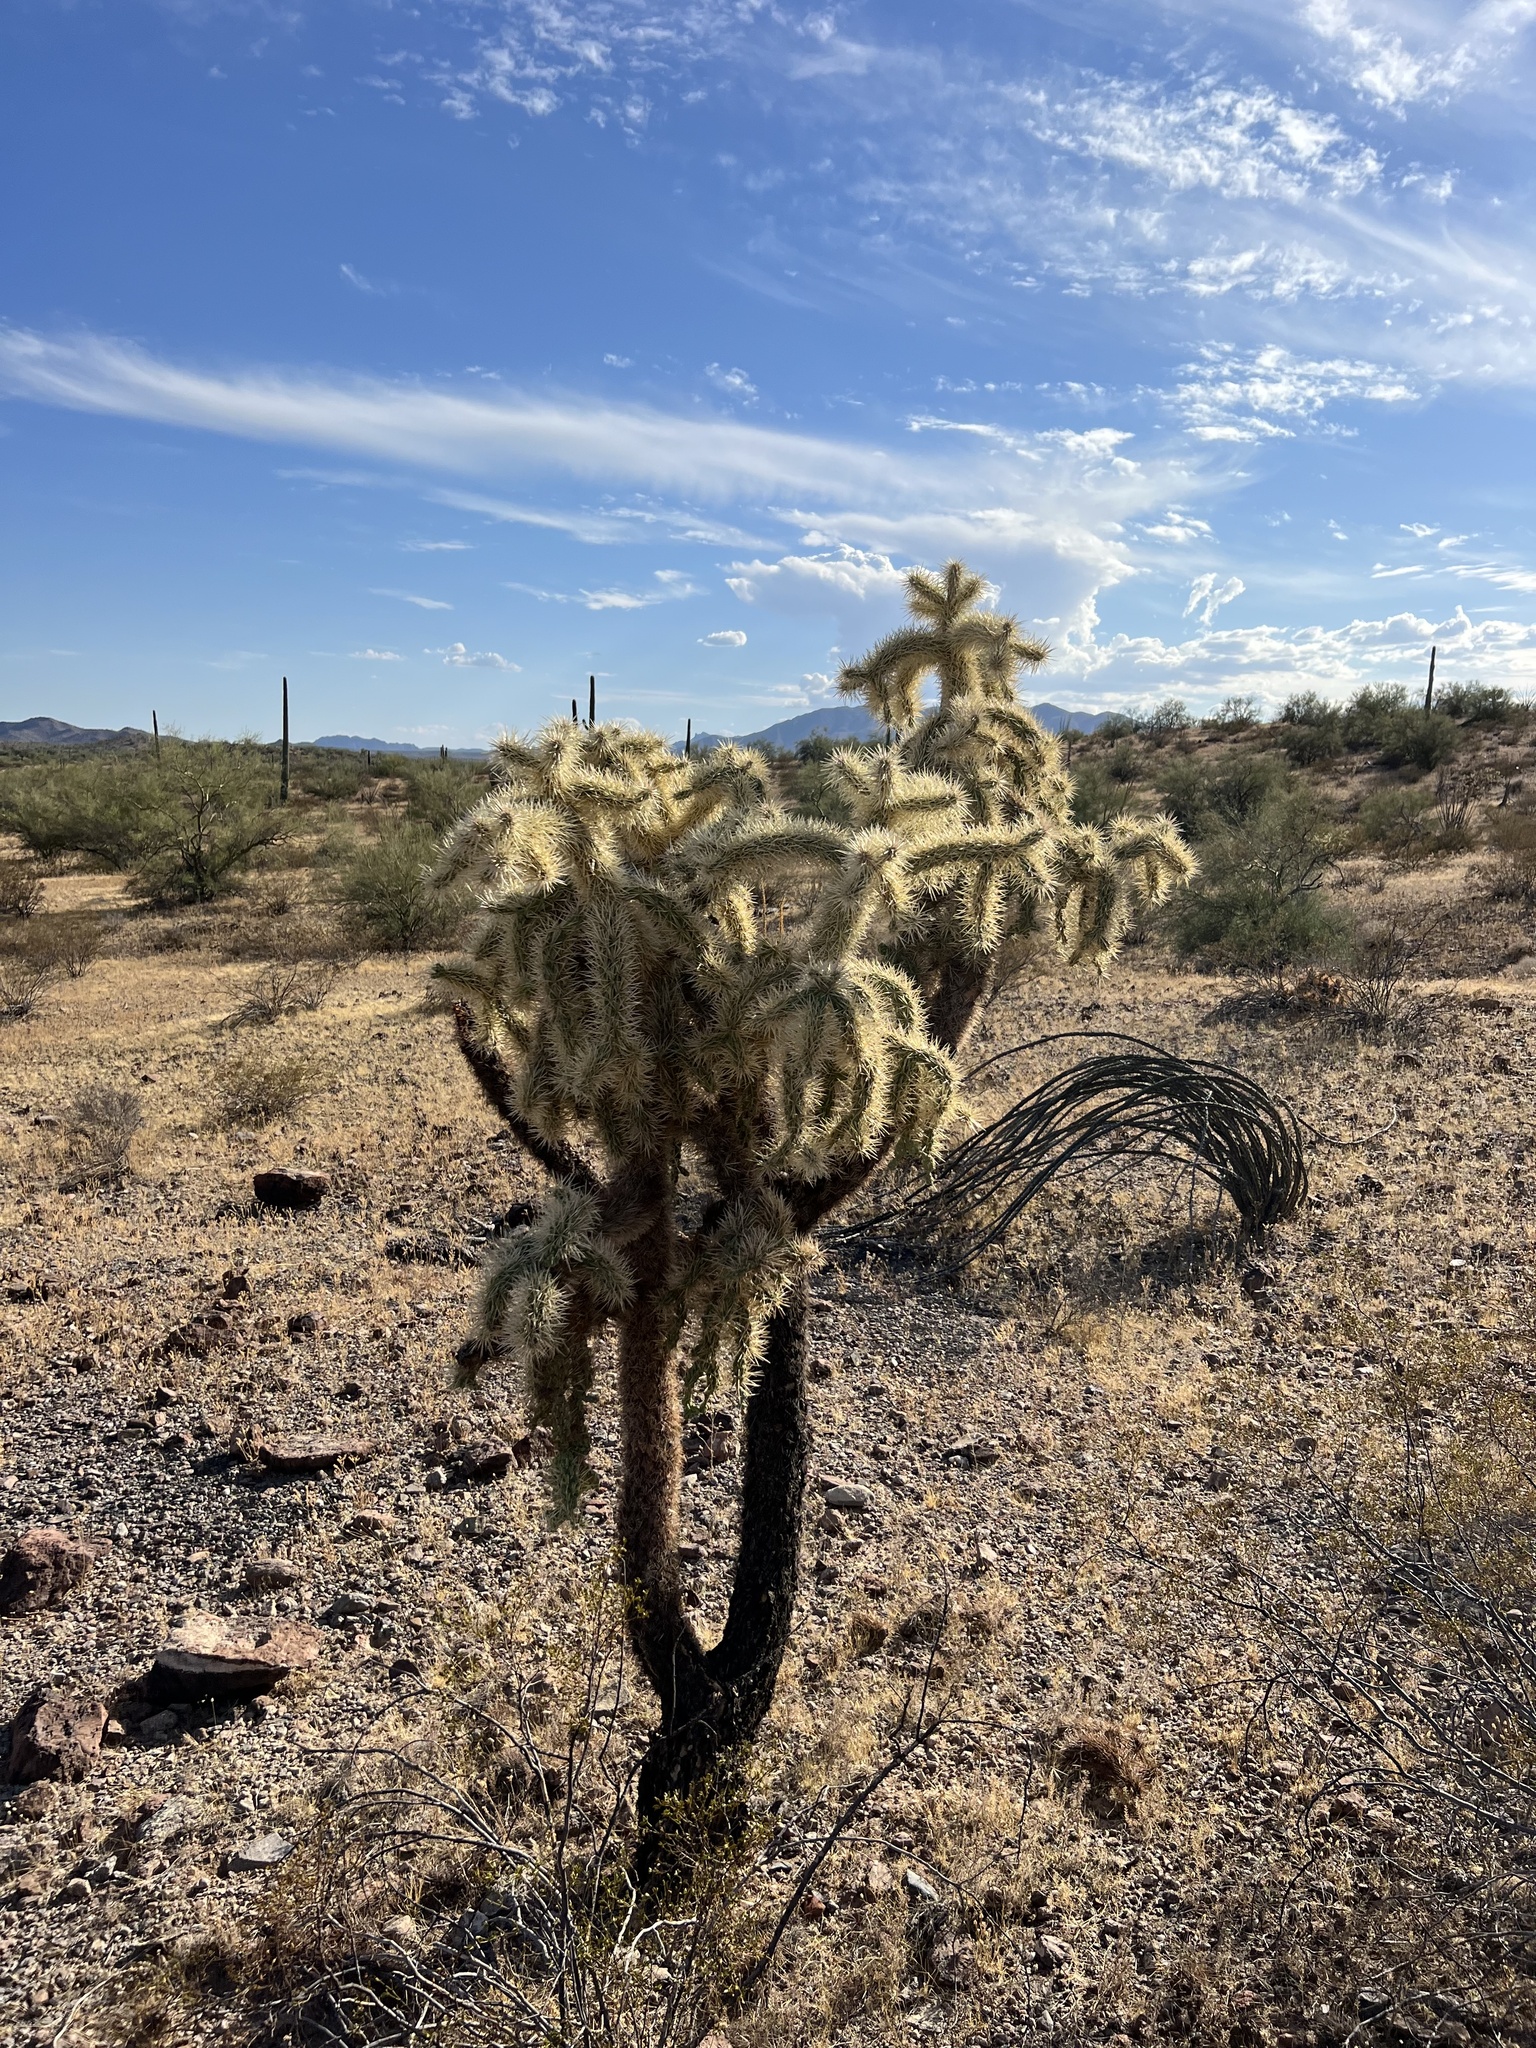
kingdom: Plantae
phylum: Tracheophyta
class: Magnoliopsida
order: Caryophyllales
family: Cactaceae
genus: Cylindropuntia
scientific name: Cylindropuntia fulgida
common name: Jumping cholla
